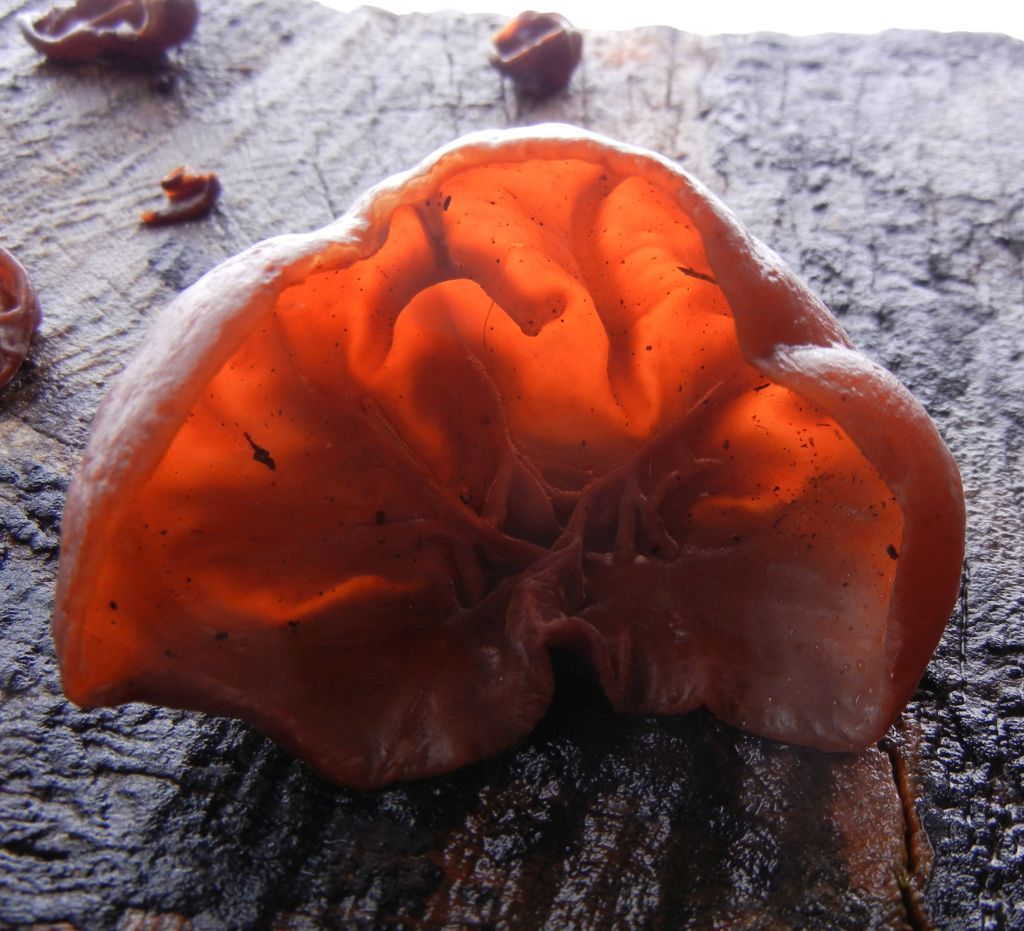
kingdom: Fungi
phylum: Basidiomycota
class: Agaricomycetes
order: Auriculariales
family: Auriculariaceae
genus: Auricularia
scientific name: Auricularia auricula-judae
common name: Jelly ear
